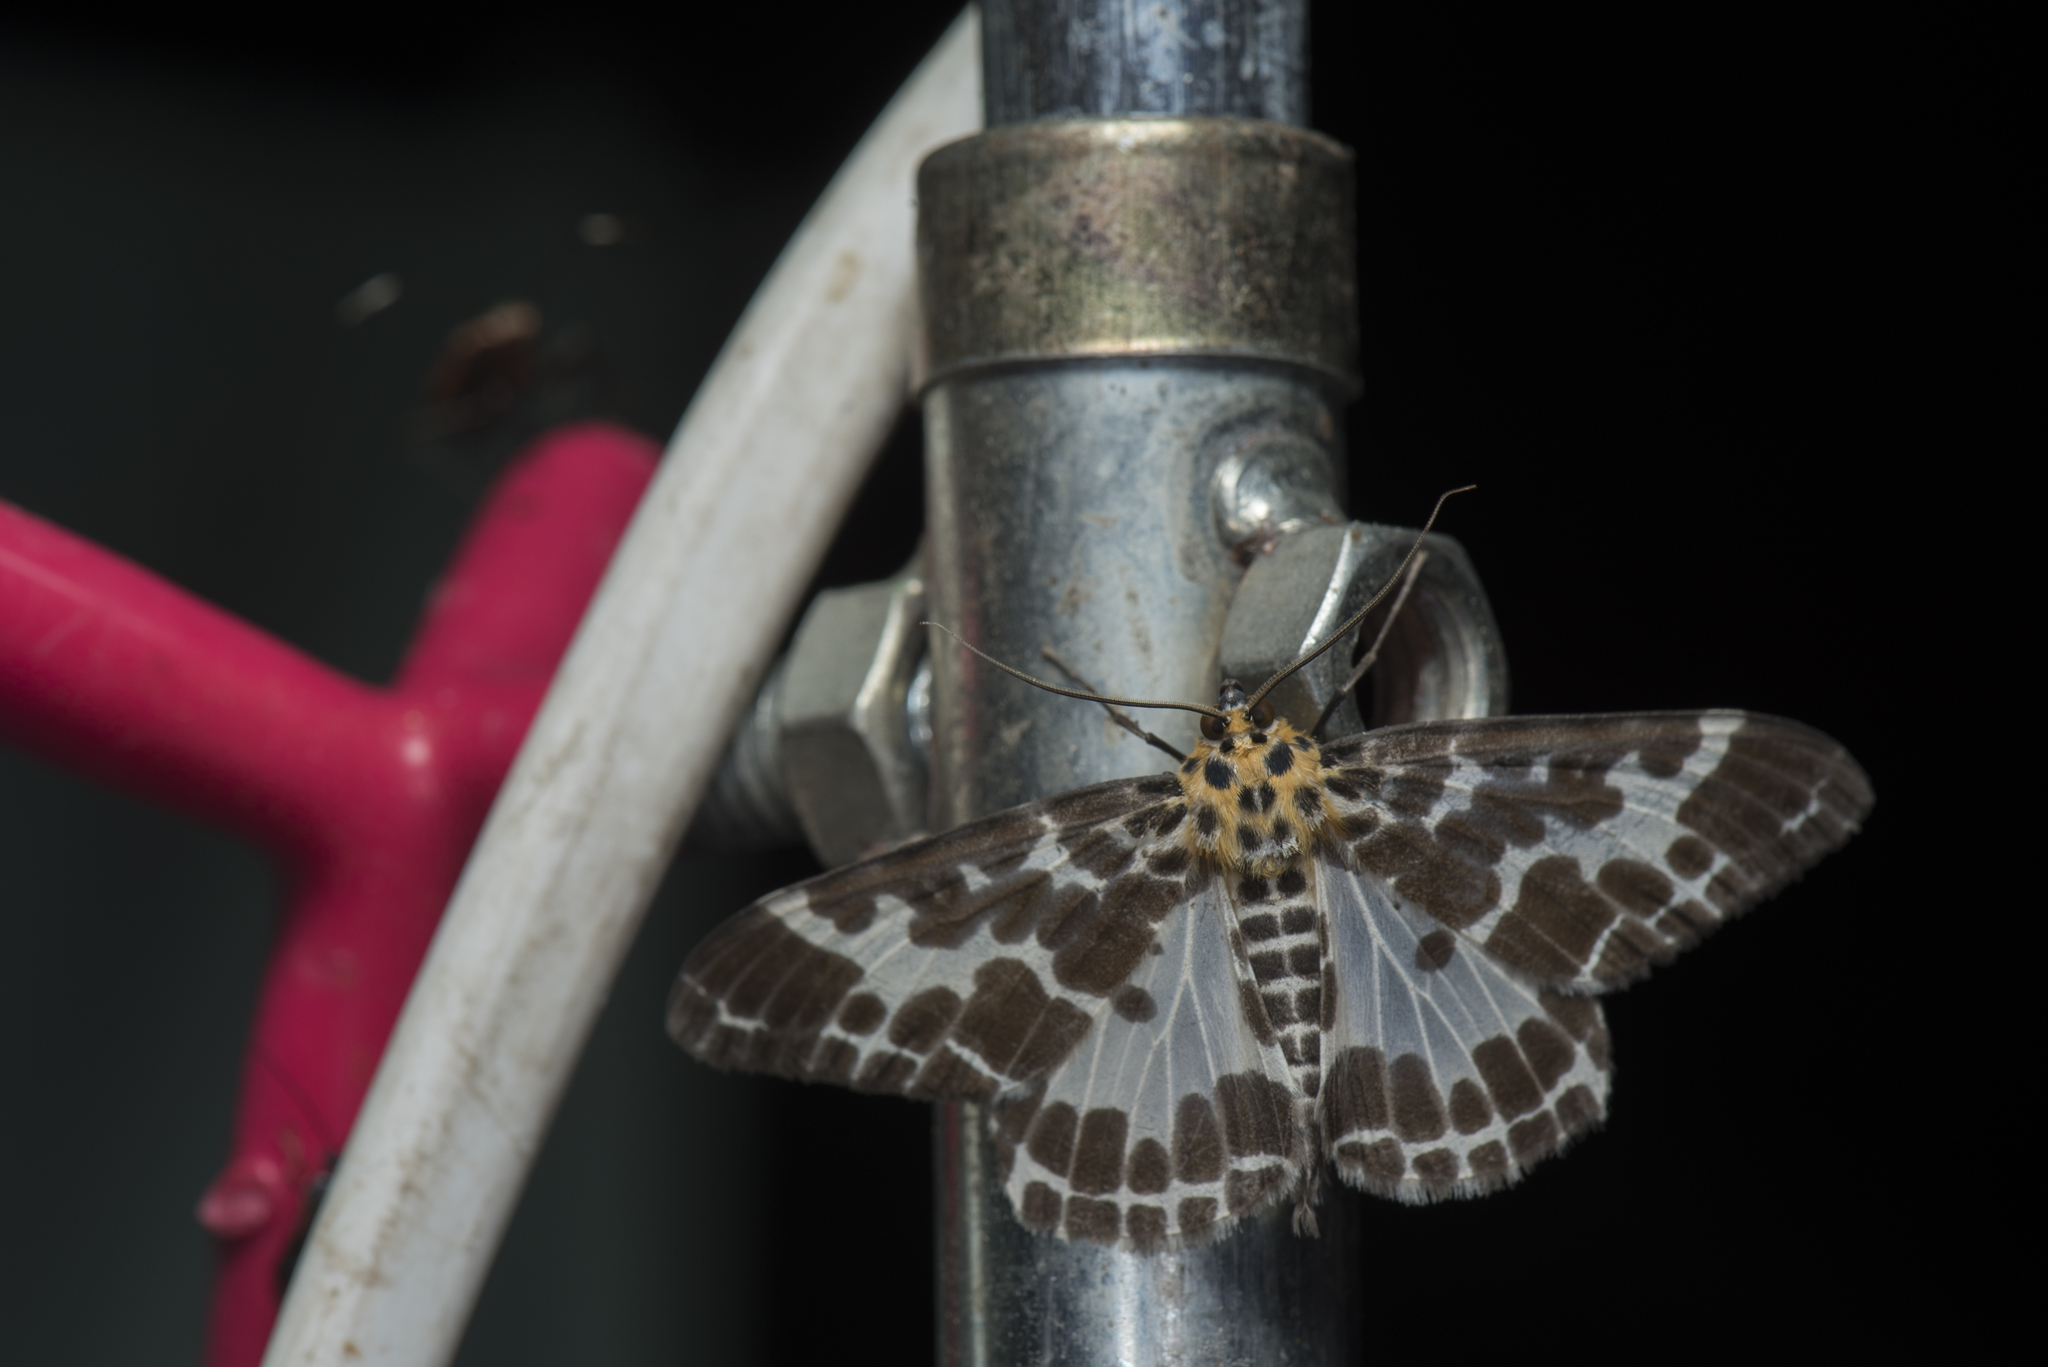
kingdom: Animalia
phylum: Arthropoda
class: Insecta
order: Lepidoptera
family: Geometridae
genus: Pogonopygia
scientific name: Pogonopygia nigralbata
